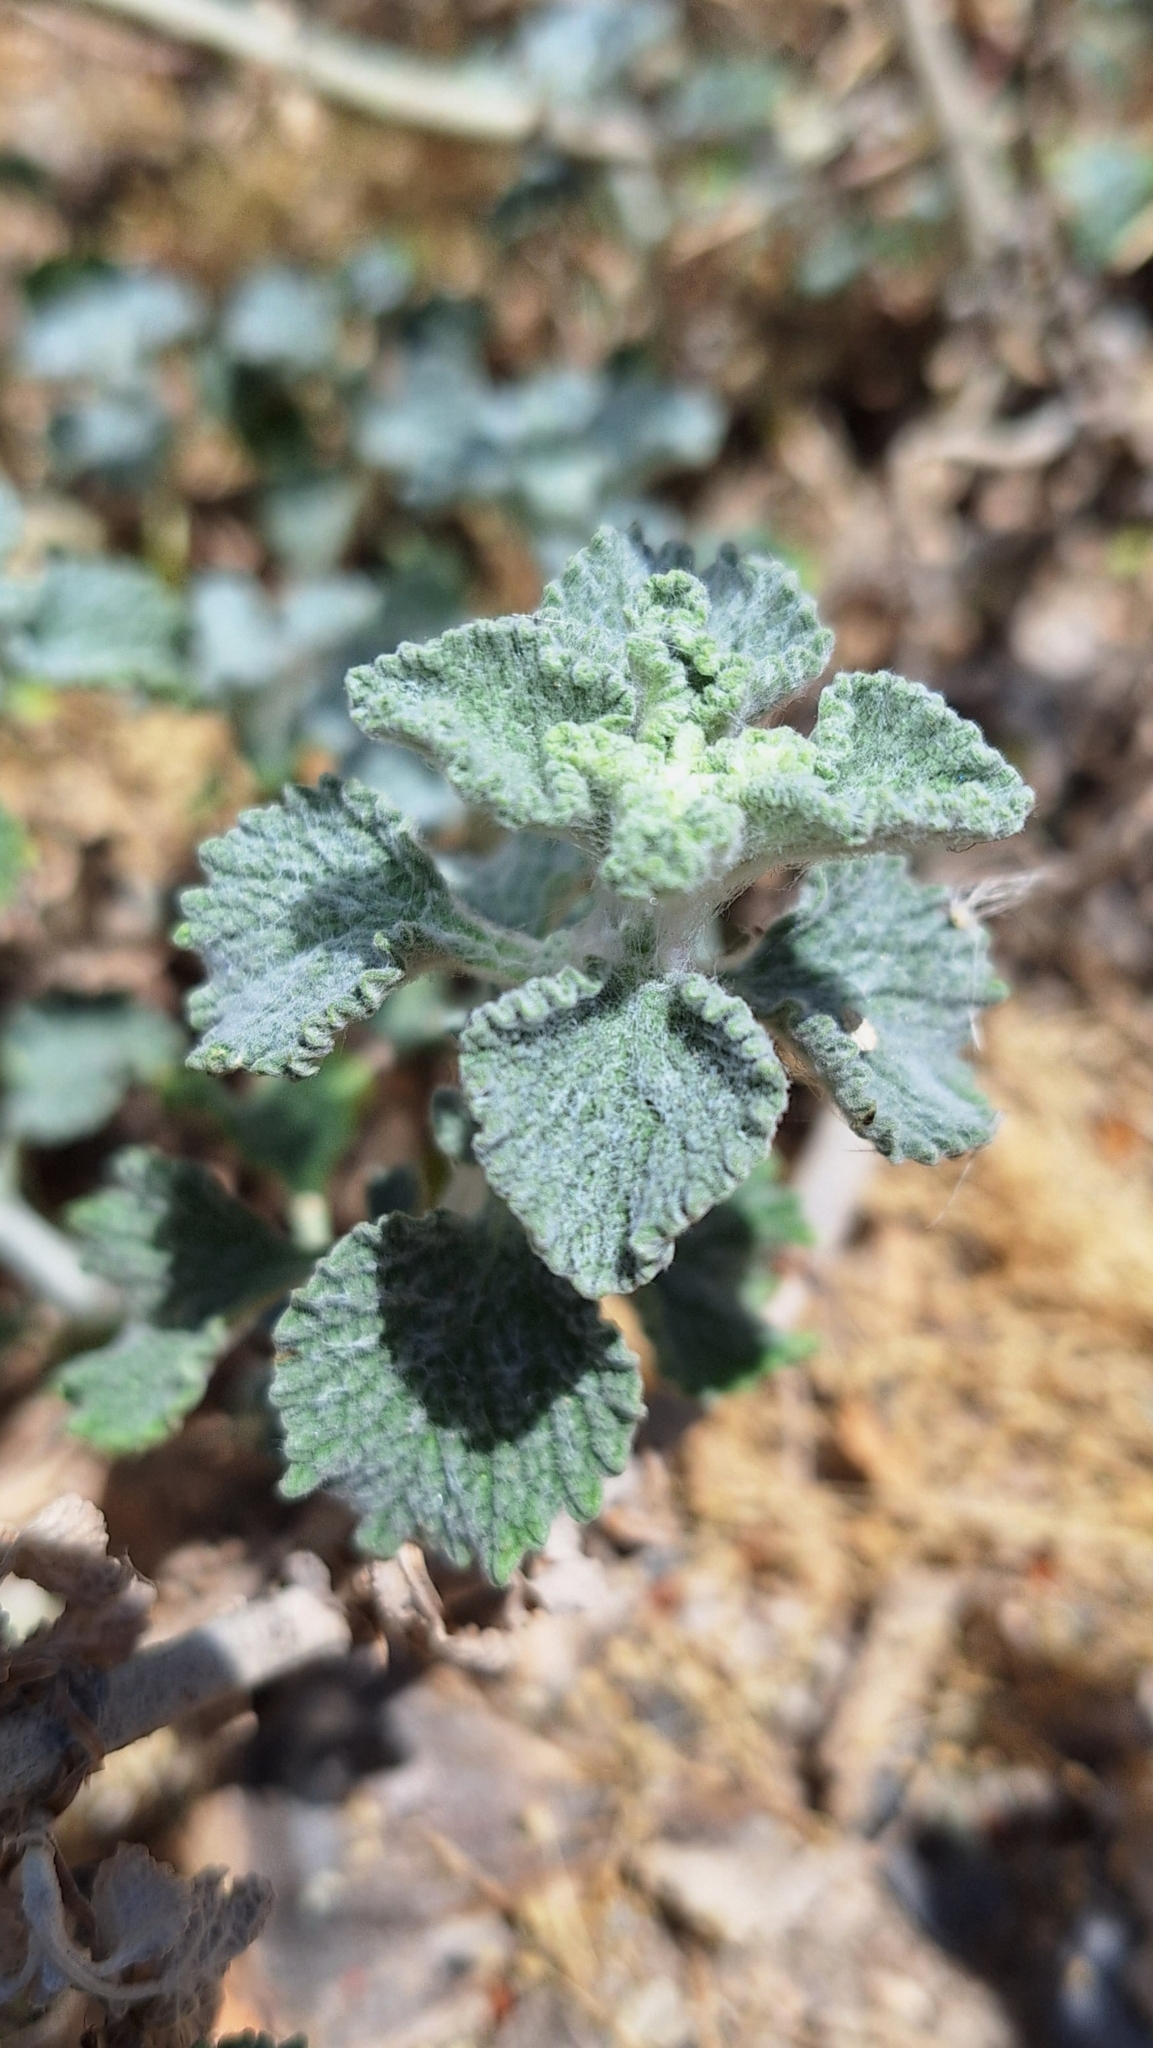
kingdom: Plantae
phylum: Tracheophyta
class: Magnoliopsida
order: Lamiales
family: Lamiaceae
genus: Marrubium
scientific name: Marrubium vulgare
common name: Horehound
